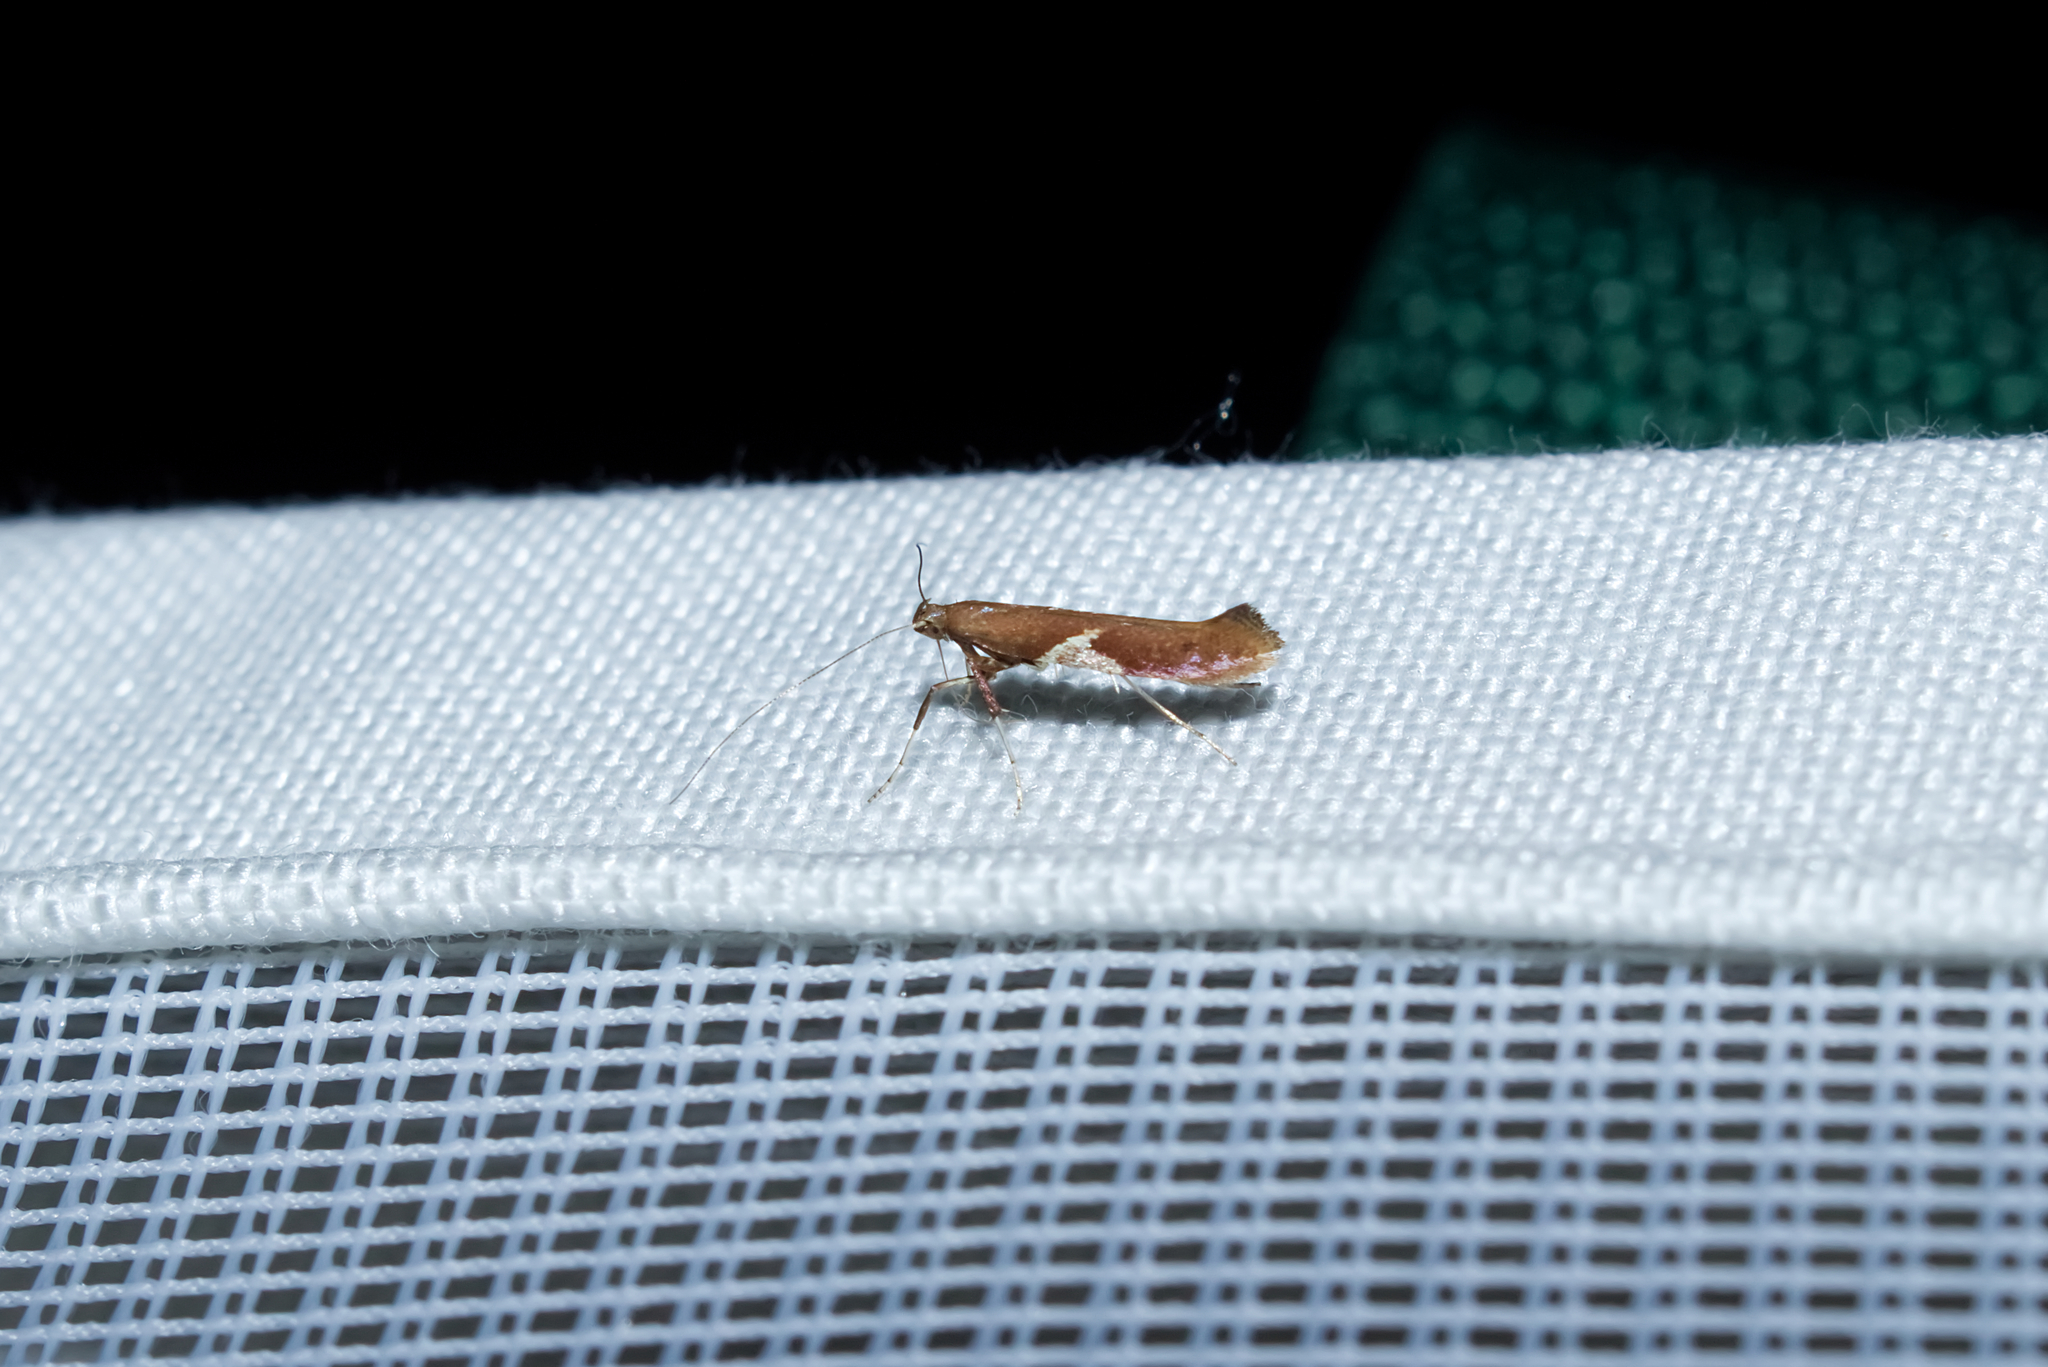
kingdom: Animalia
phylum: Arthropoda
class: Insecta
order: Lepidoptera
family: Gracillariidae
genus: Caloptilia
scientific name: Caloptilia stigmatella
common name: White-triangle slender
